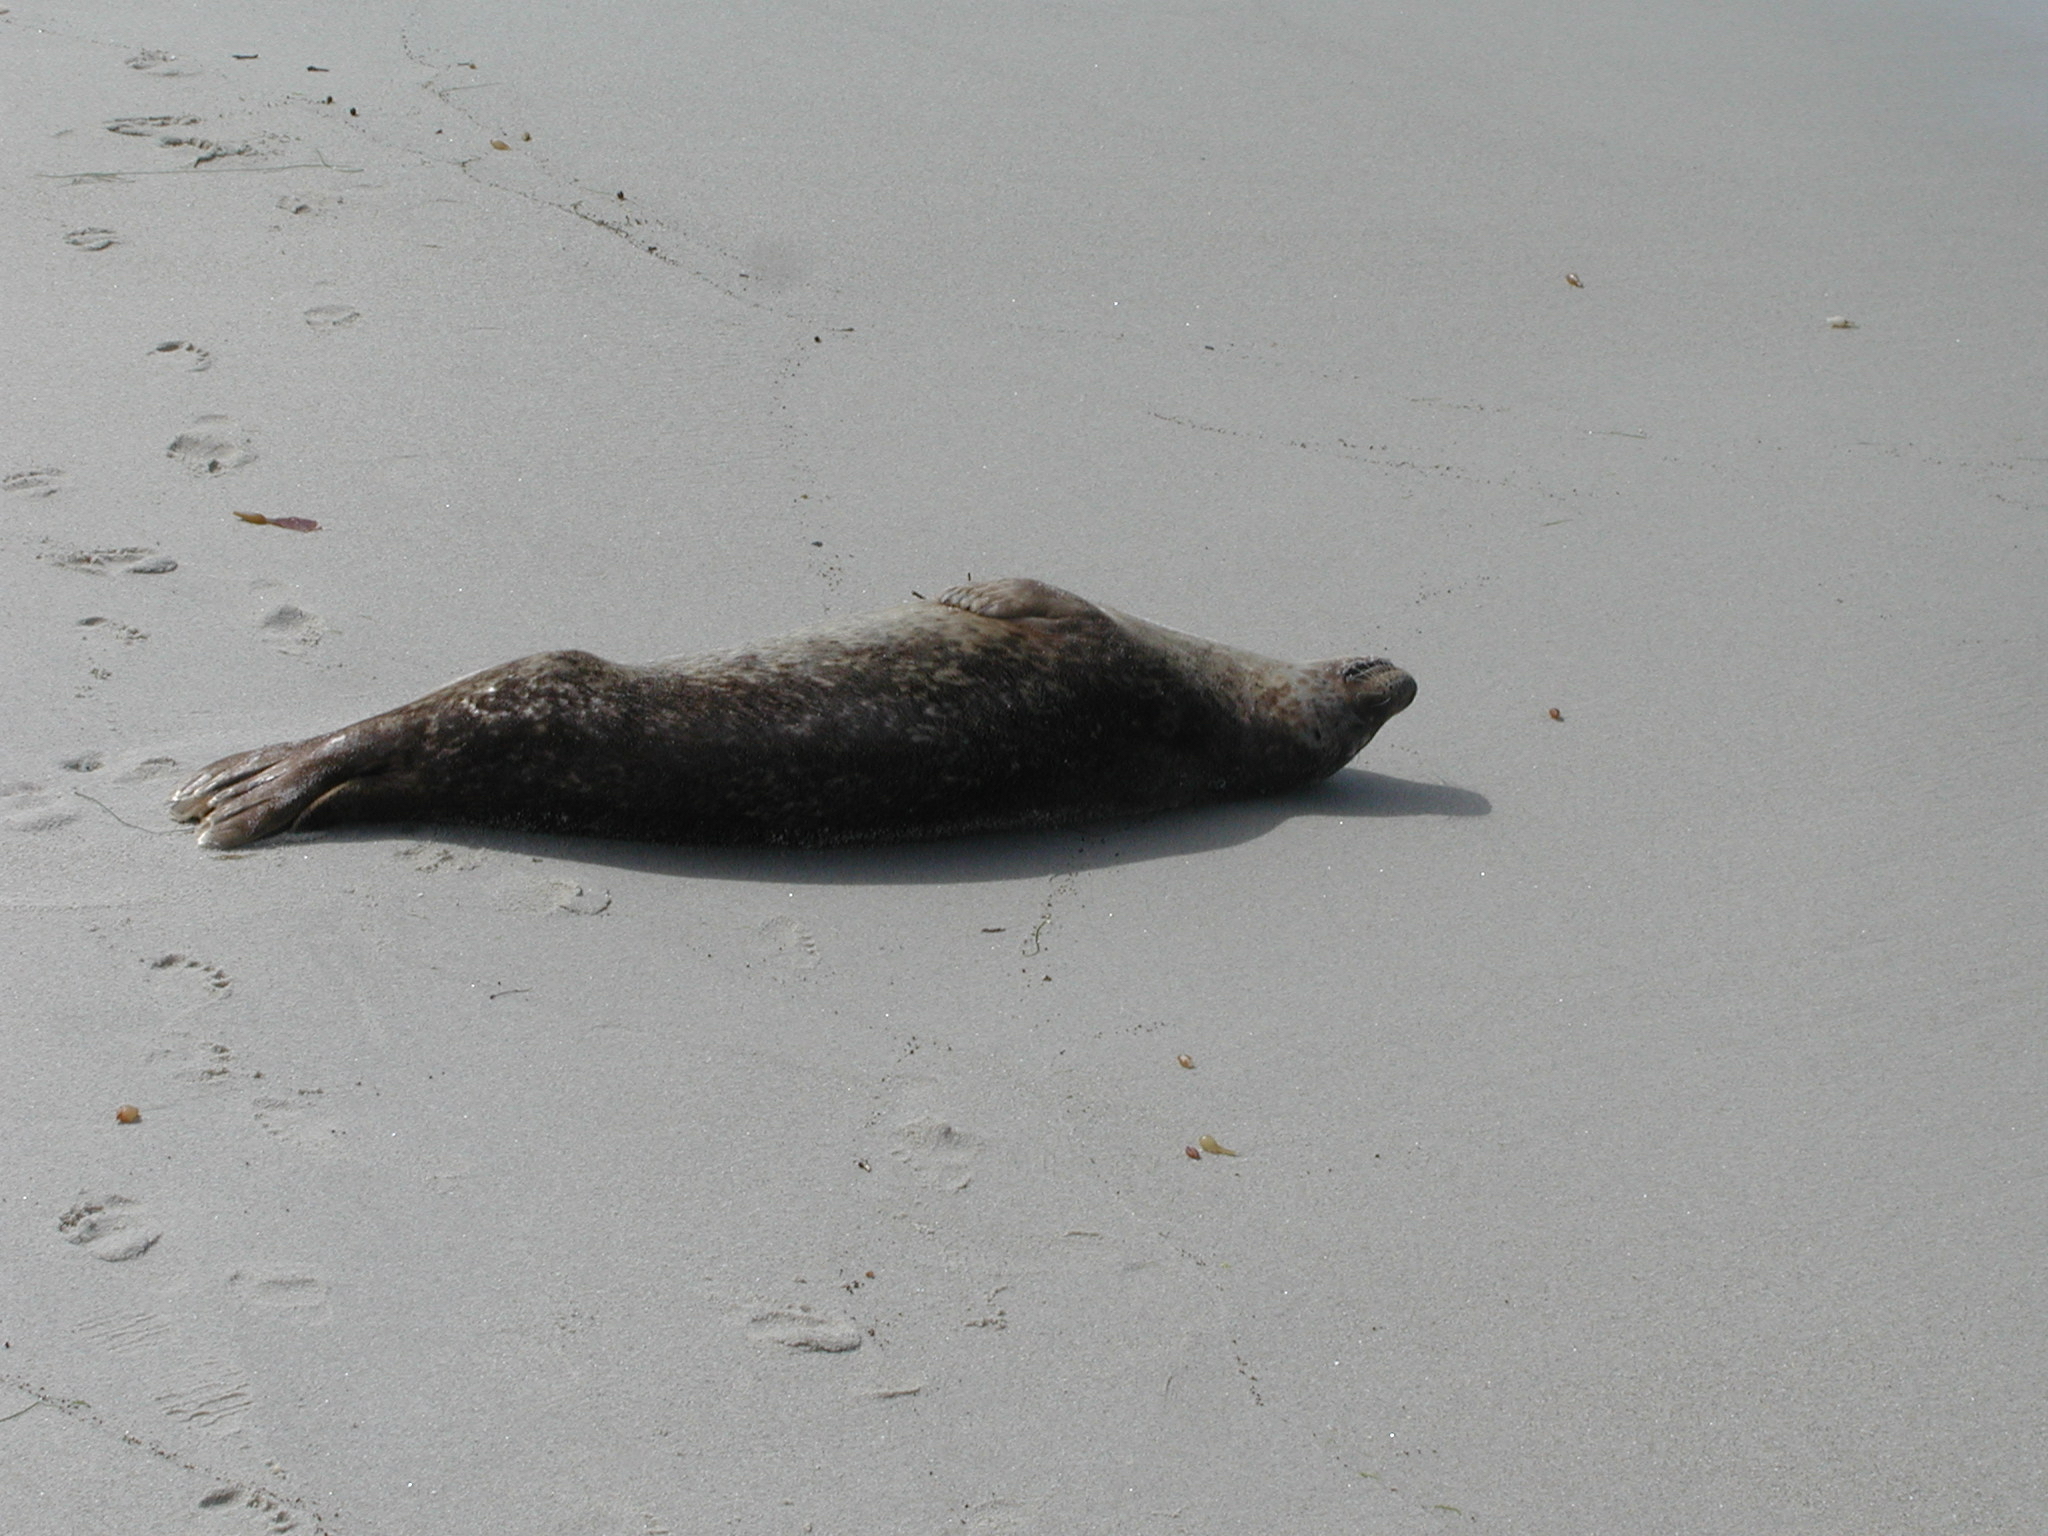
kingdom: Animalia
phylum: Chordata
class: Mammalia
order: Carnivora
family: Phocidae
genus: Phoca
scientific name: Phoca vitulina
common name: Harbor seal
